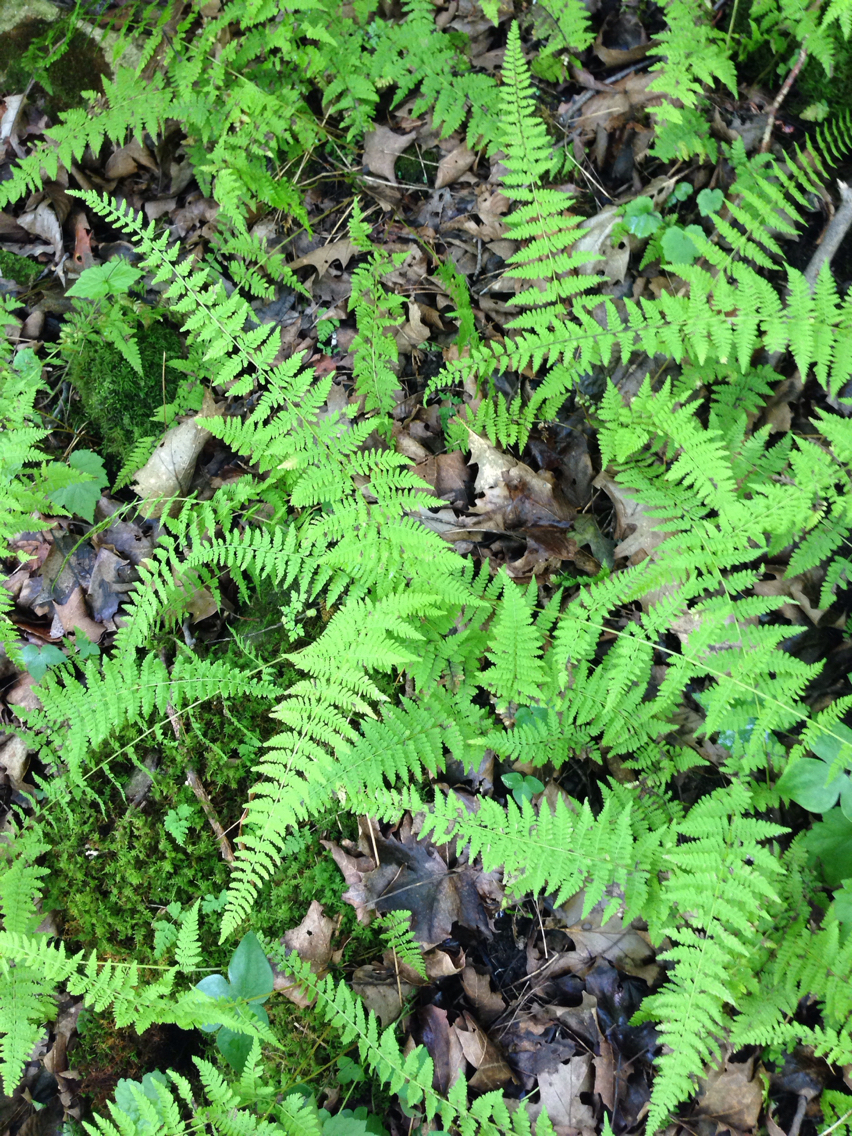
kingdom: Plantae
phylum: Tracheophyta
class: Polypodiopsida
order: Polypodiales
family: Cystopteridaceae
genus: Cystopteris
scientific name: Cystopteris bulbifera
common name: Bulblet bladder fern
